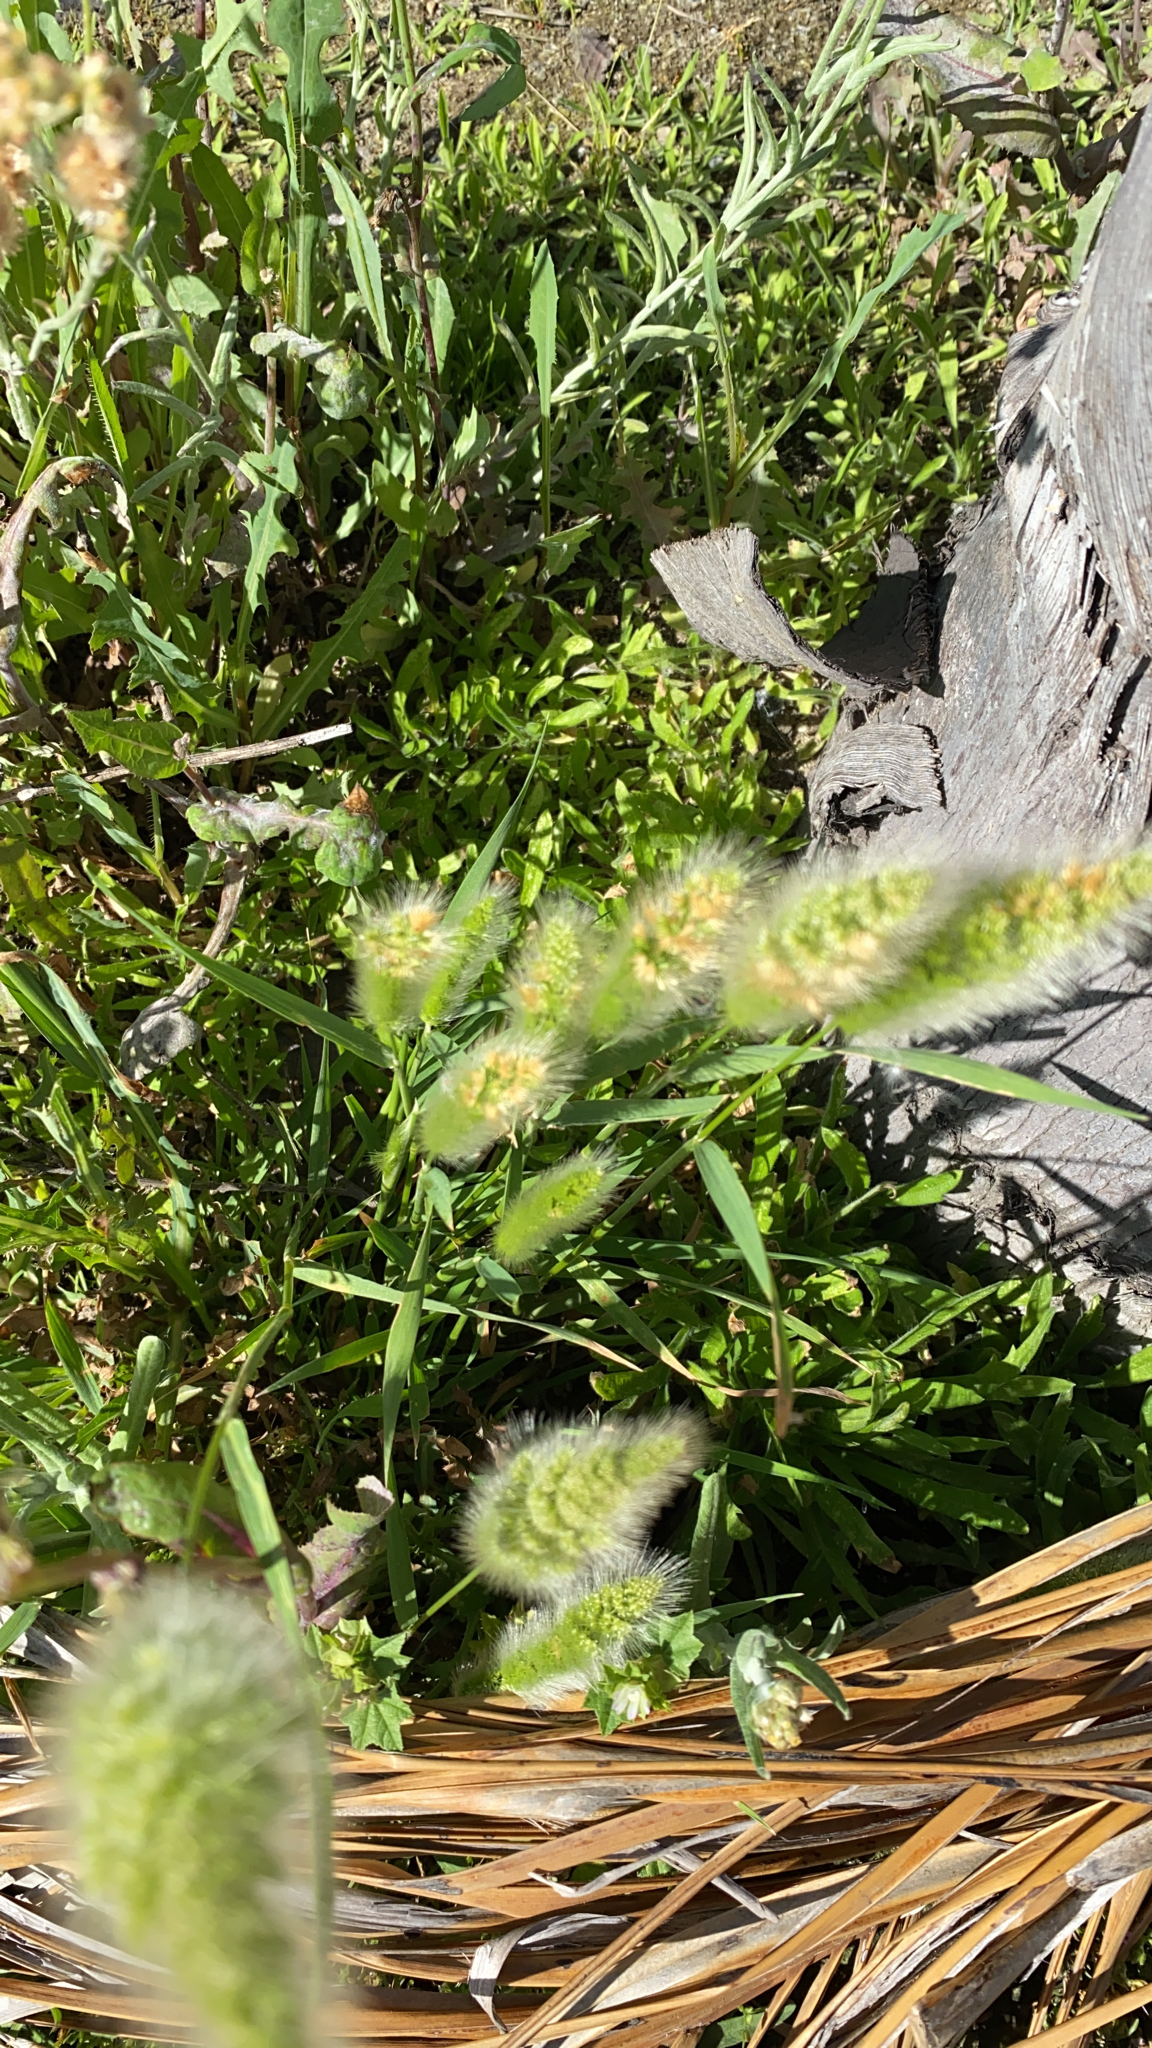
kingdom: Plantae
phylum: Tracheophyta
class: Liliopsida
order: Poales
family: Poaceae
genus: Polypogon
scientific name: Polypogon monspeliensis
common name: Annual rabbitsfoot grass
